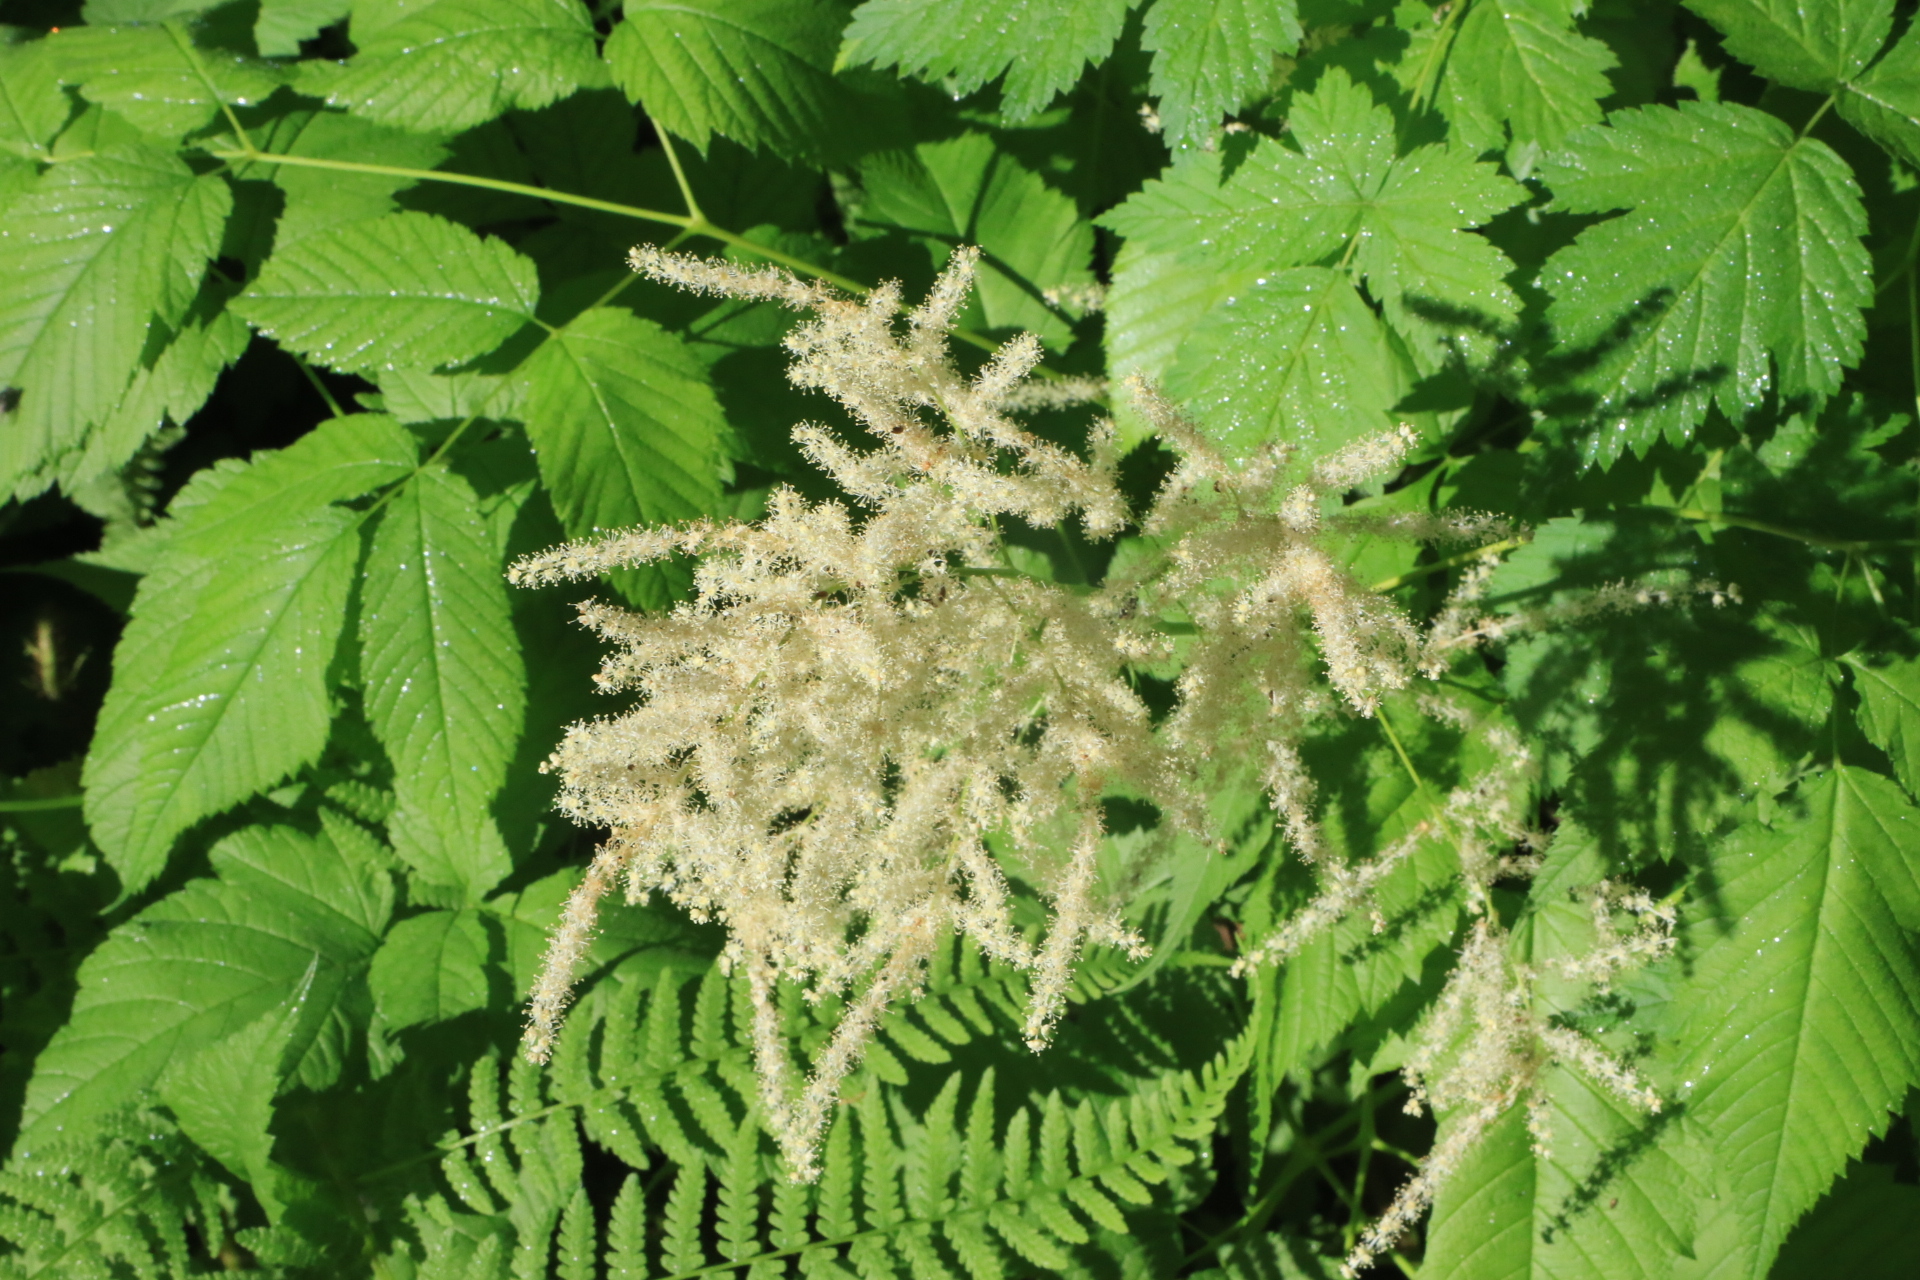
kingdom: Plantae
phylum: Tracheophyta
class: Magnoliopsida
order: Rosales
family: Rosaceae
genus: Aruncus
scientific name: Aruncus dioicus
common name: Buck's-beard
